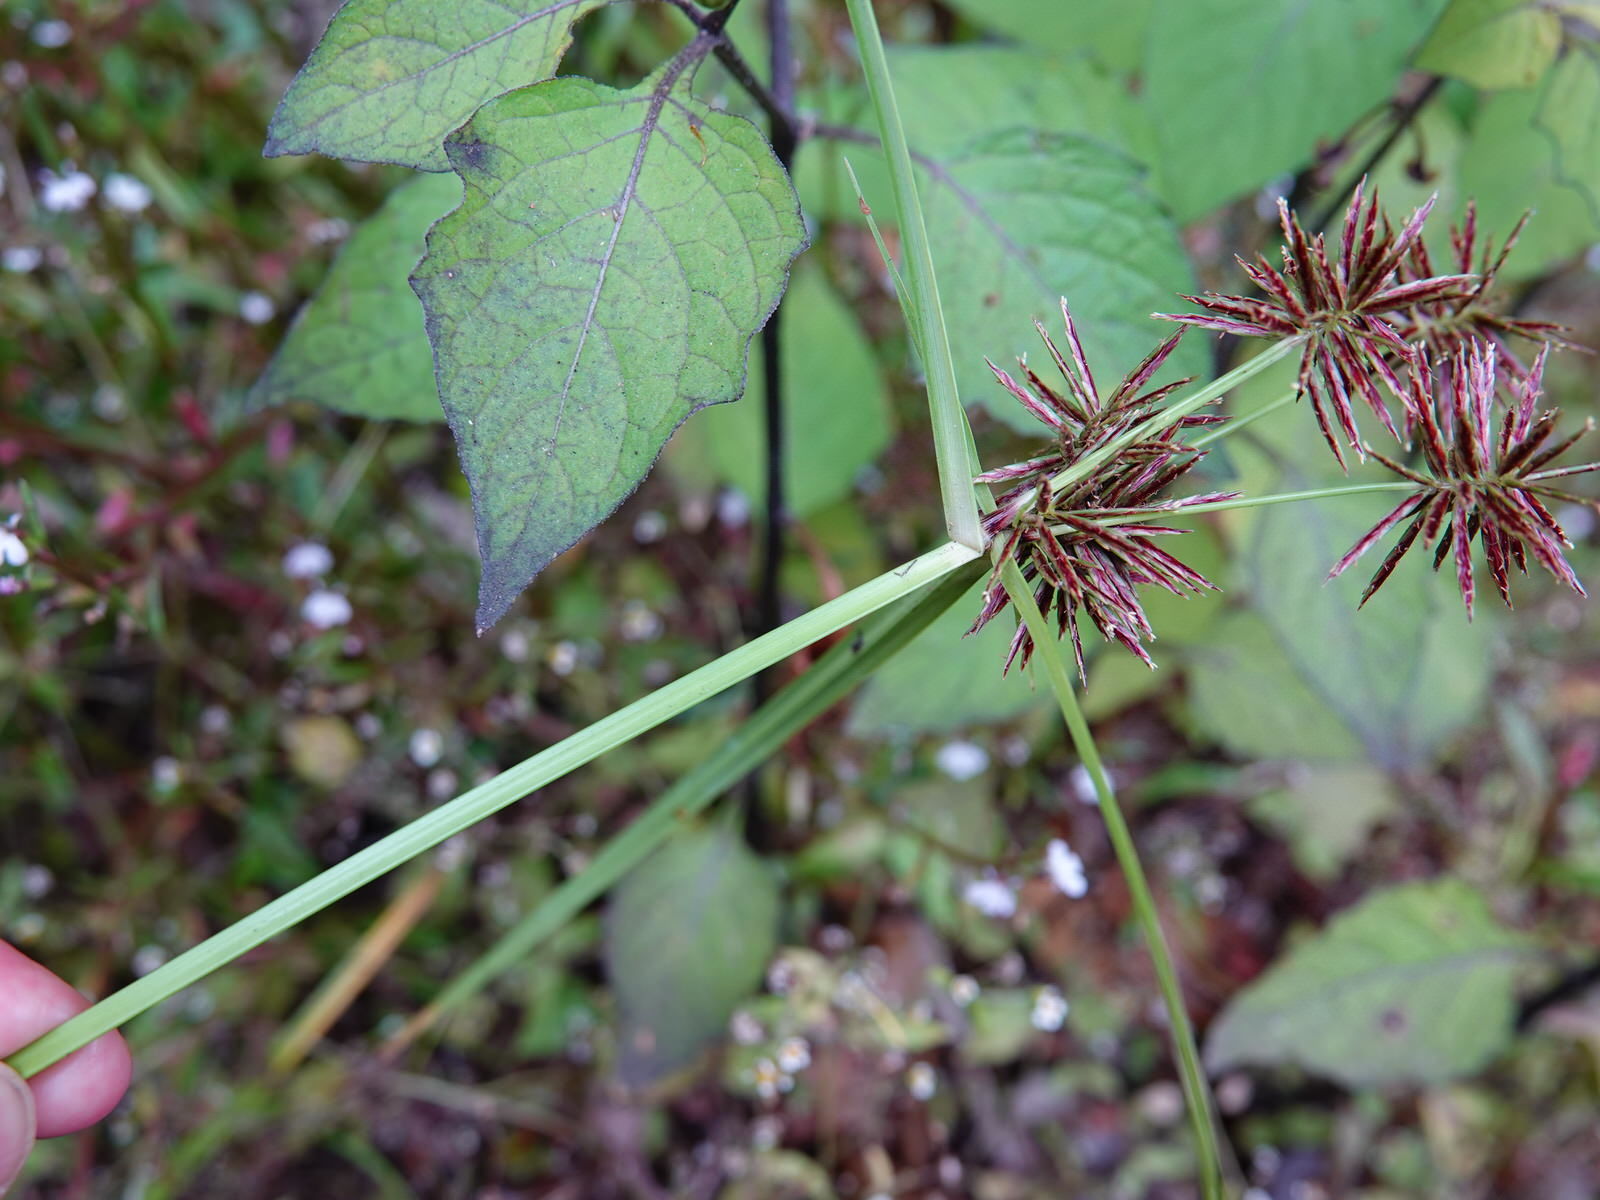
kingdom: Plantae
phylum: Tracheophyta
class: Liliopsida
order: Poales
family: Cyperaceae
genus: Cyperus
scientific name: Cyperus congestus
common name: Dense flat sedge
